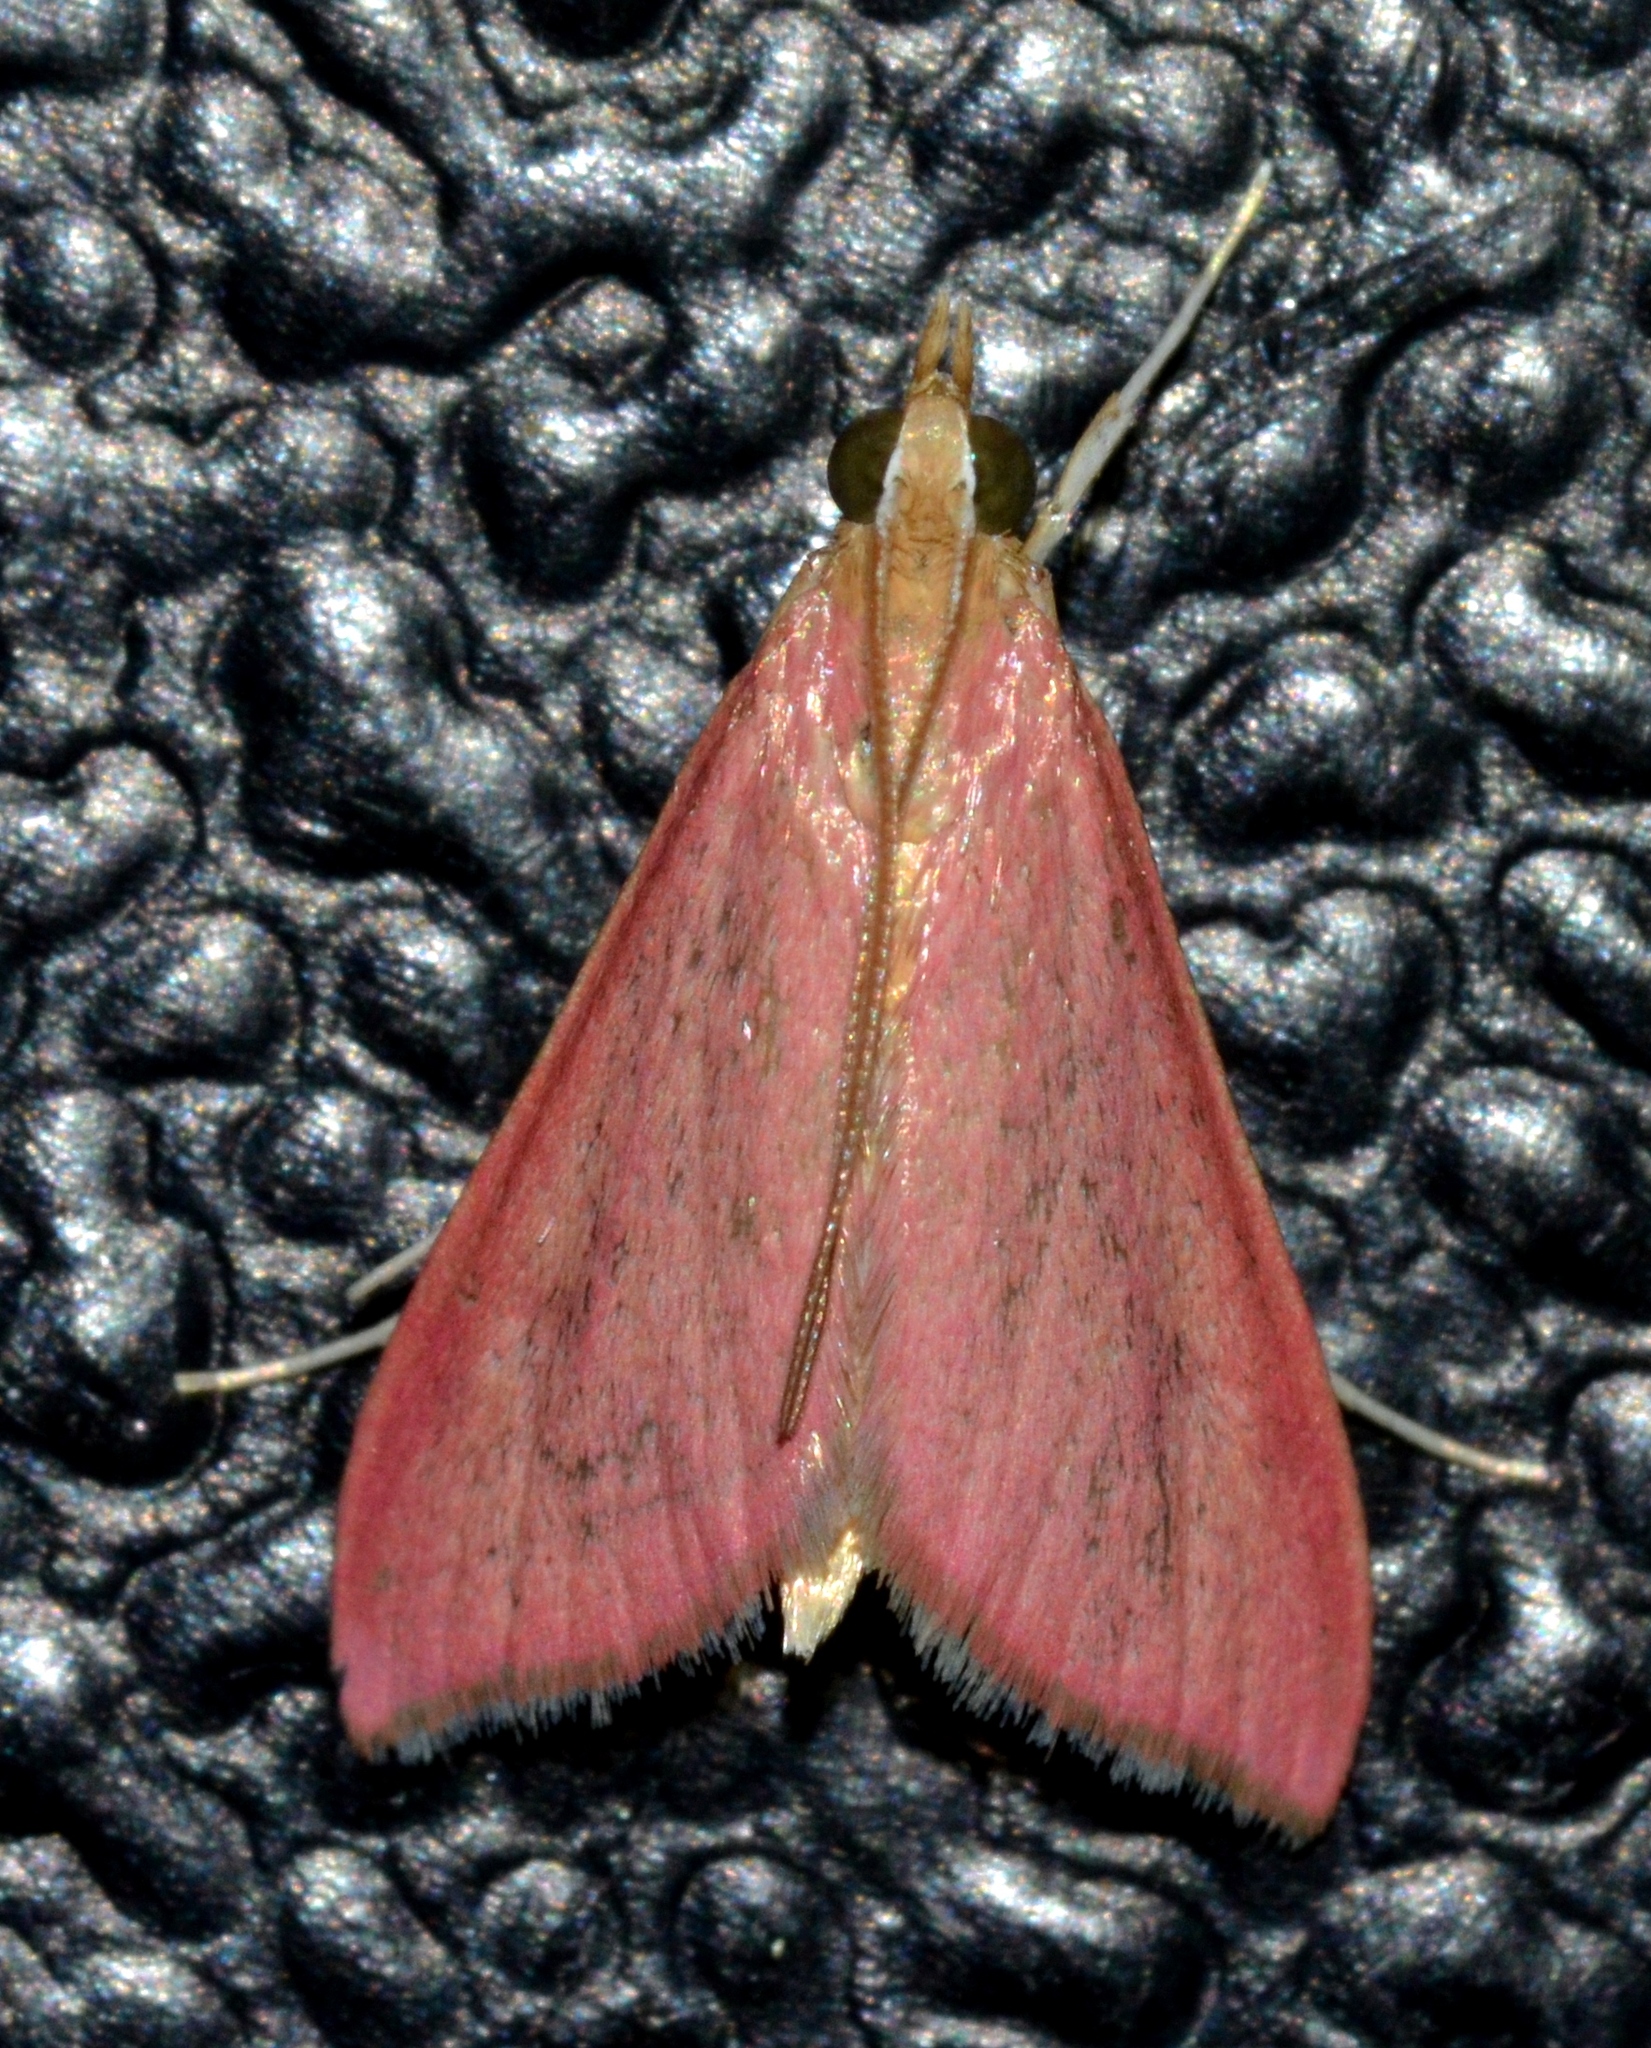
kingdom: Animalia
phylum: Arthropoda
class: Insecta
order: Lepidoptera
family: Crambidae
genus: Pyrausta
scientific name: Pyrausta inornatalis
